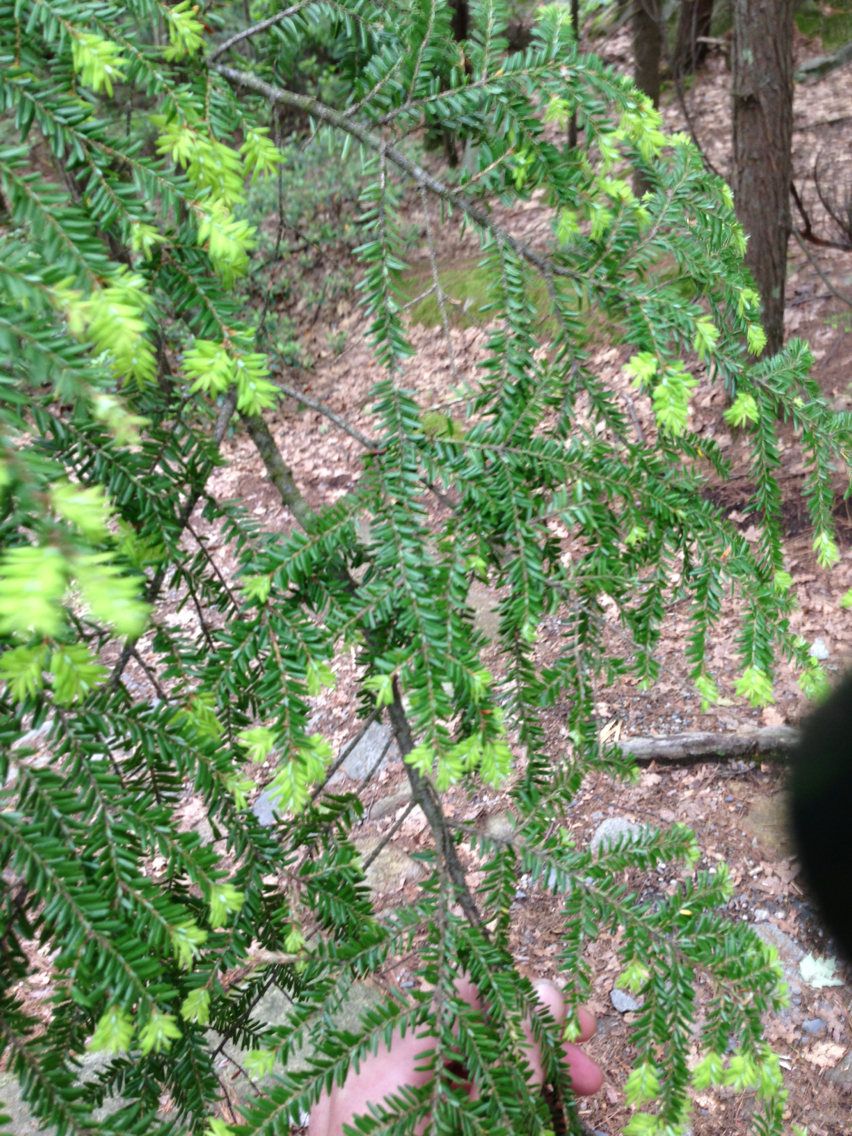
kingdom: Plantae
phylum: Tracheophyta
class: Pinopsida
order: Pinales
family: Pinaceae
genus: Tsuga
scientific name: Tsuga canadensis
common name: Eastern hemlock
